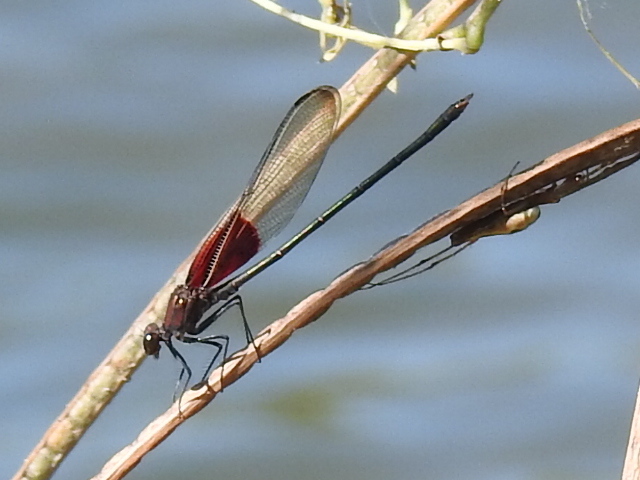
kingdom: Animalia
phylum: Arthropoda
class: Insecta
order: Odonata
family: Calopterygidae
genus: Hetaerina
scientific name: Hetaerina americana
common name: American rubyspot
